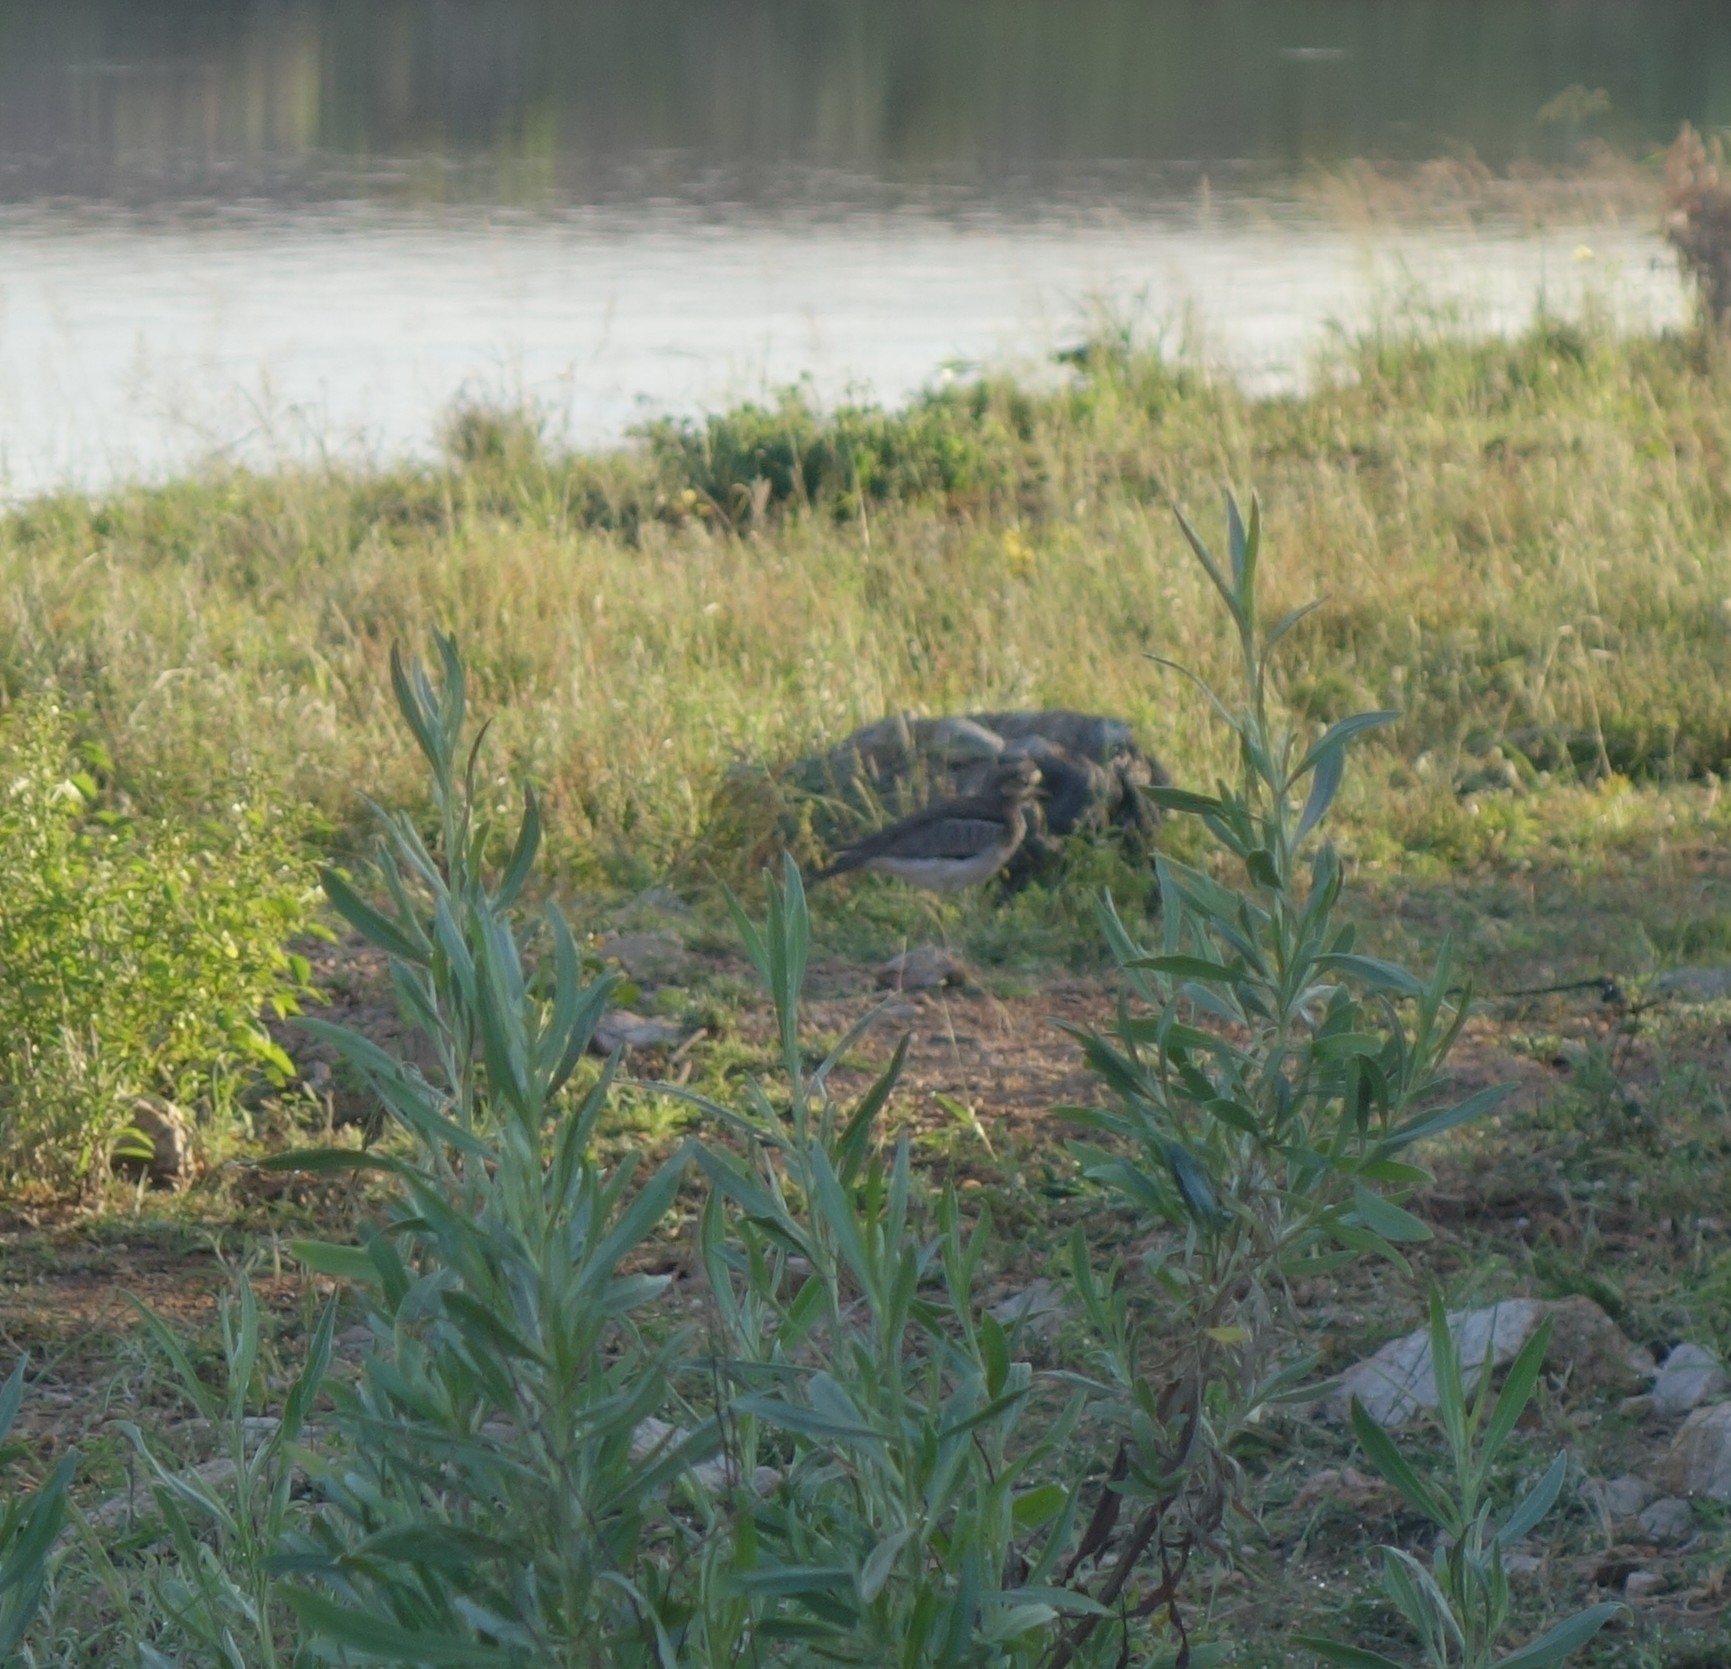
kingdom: Animalia
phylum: Chordata
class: Aves
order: Charadriiformes
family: Burhinidae
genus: Burhinus
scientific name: Burhinus vermiculatus
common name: Water thick-knee
